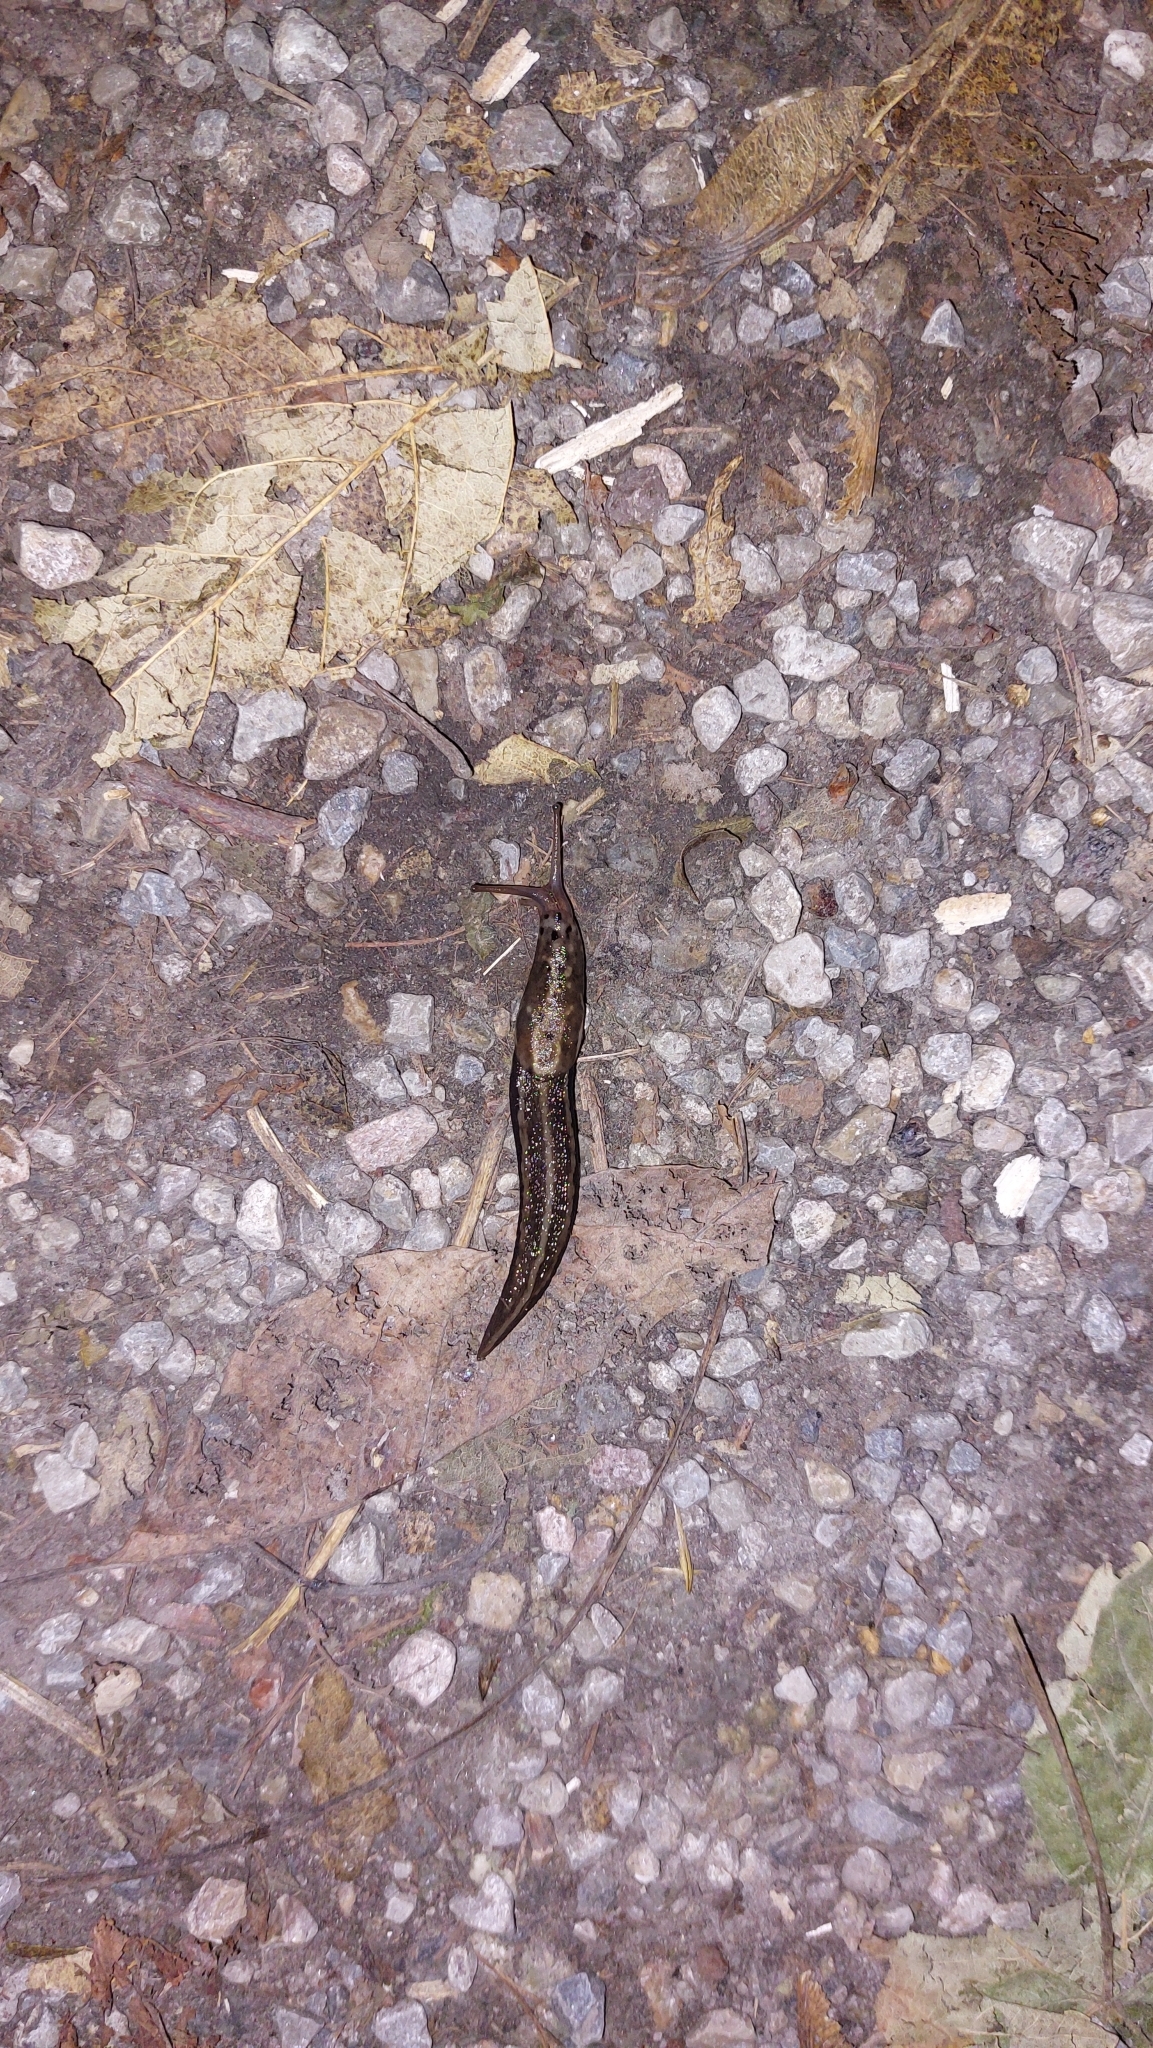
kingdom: Animalia
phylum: Mollusca
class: Gastropoda
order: Stylommatophora
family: Limacidae
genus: Limax
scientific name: Limax maximus
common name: Great grey slug
